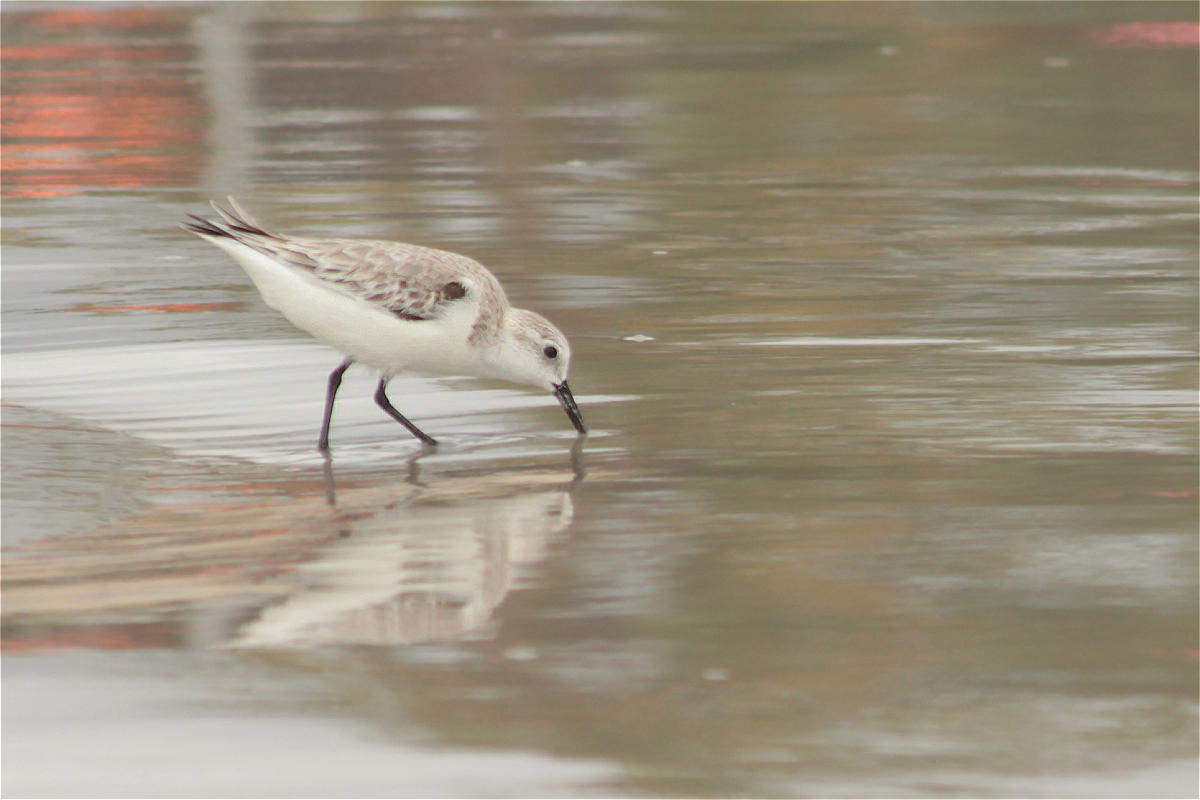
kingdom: Animalia
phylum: Chordata
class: Aves
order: Charadriiformes
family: Scolopacidae
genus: Calidris
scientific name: Calidris alba
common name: Sanderling
